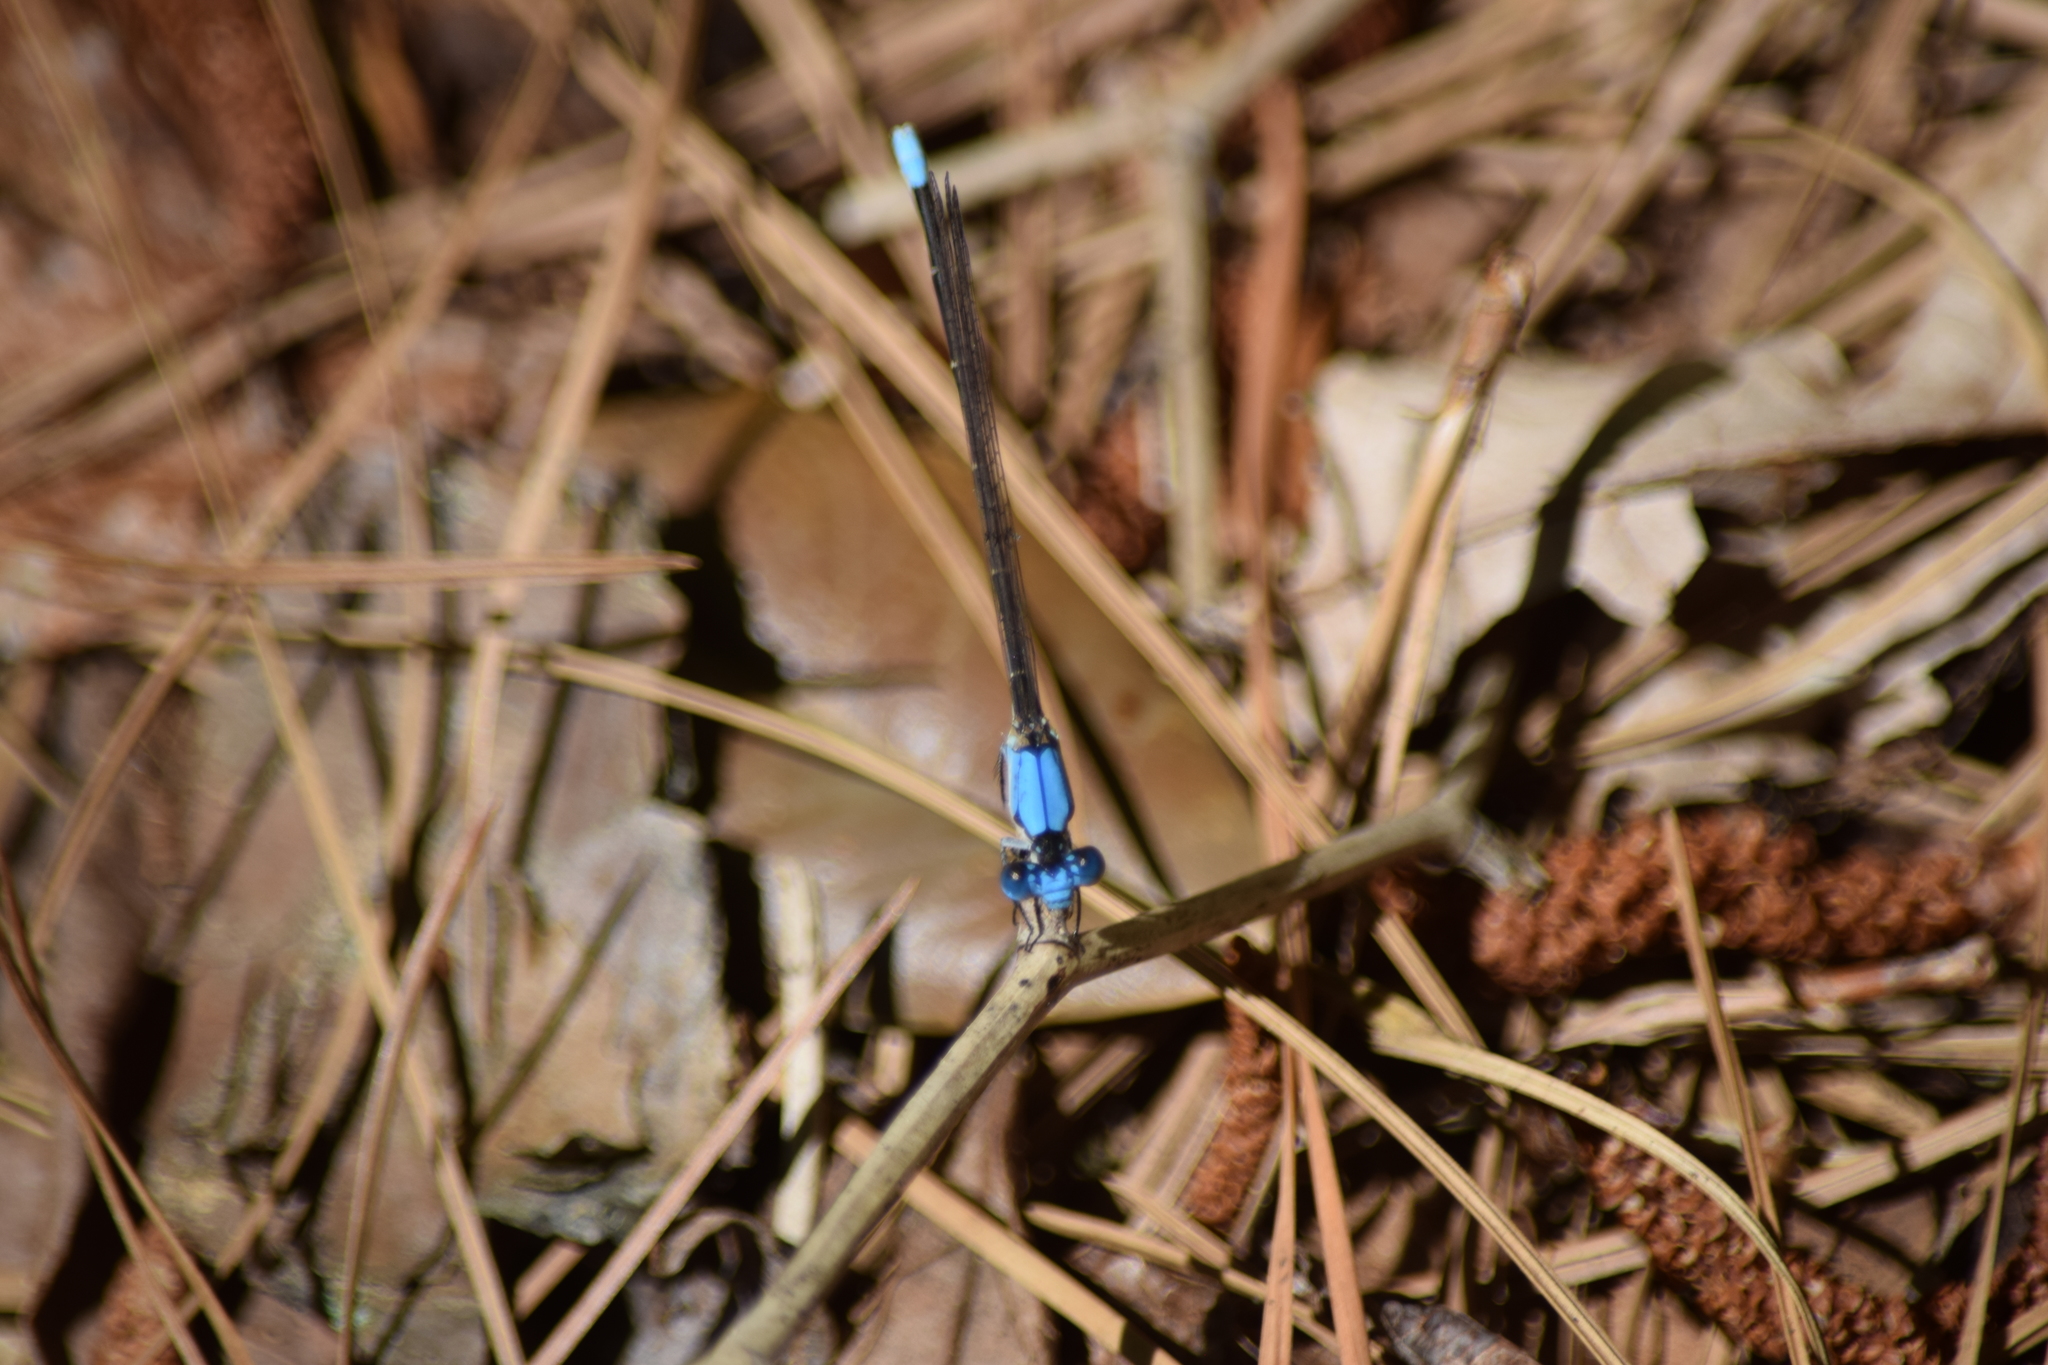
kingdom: Animalia
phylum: Arthropoda
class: Insecta
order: Odonata
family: Coenagrionidae
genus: Argia
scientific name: Argia apicalis
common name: Blue-fronted dancer
